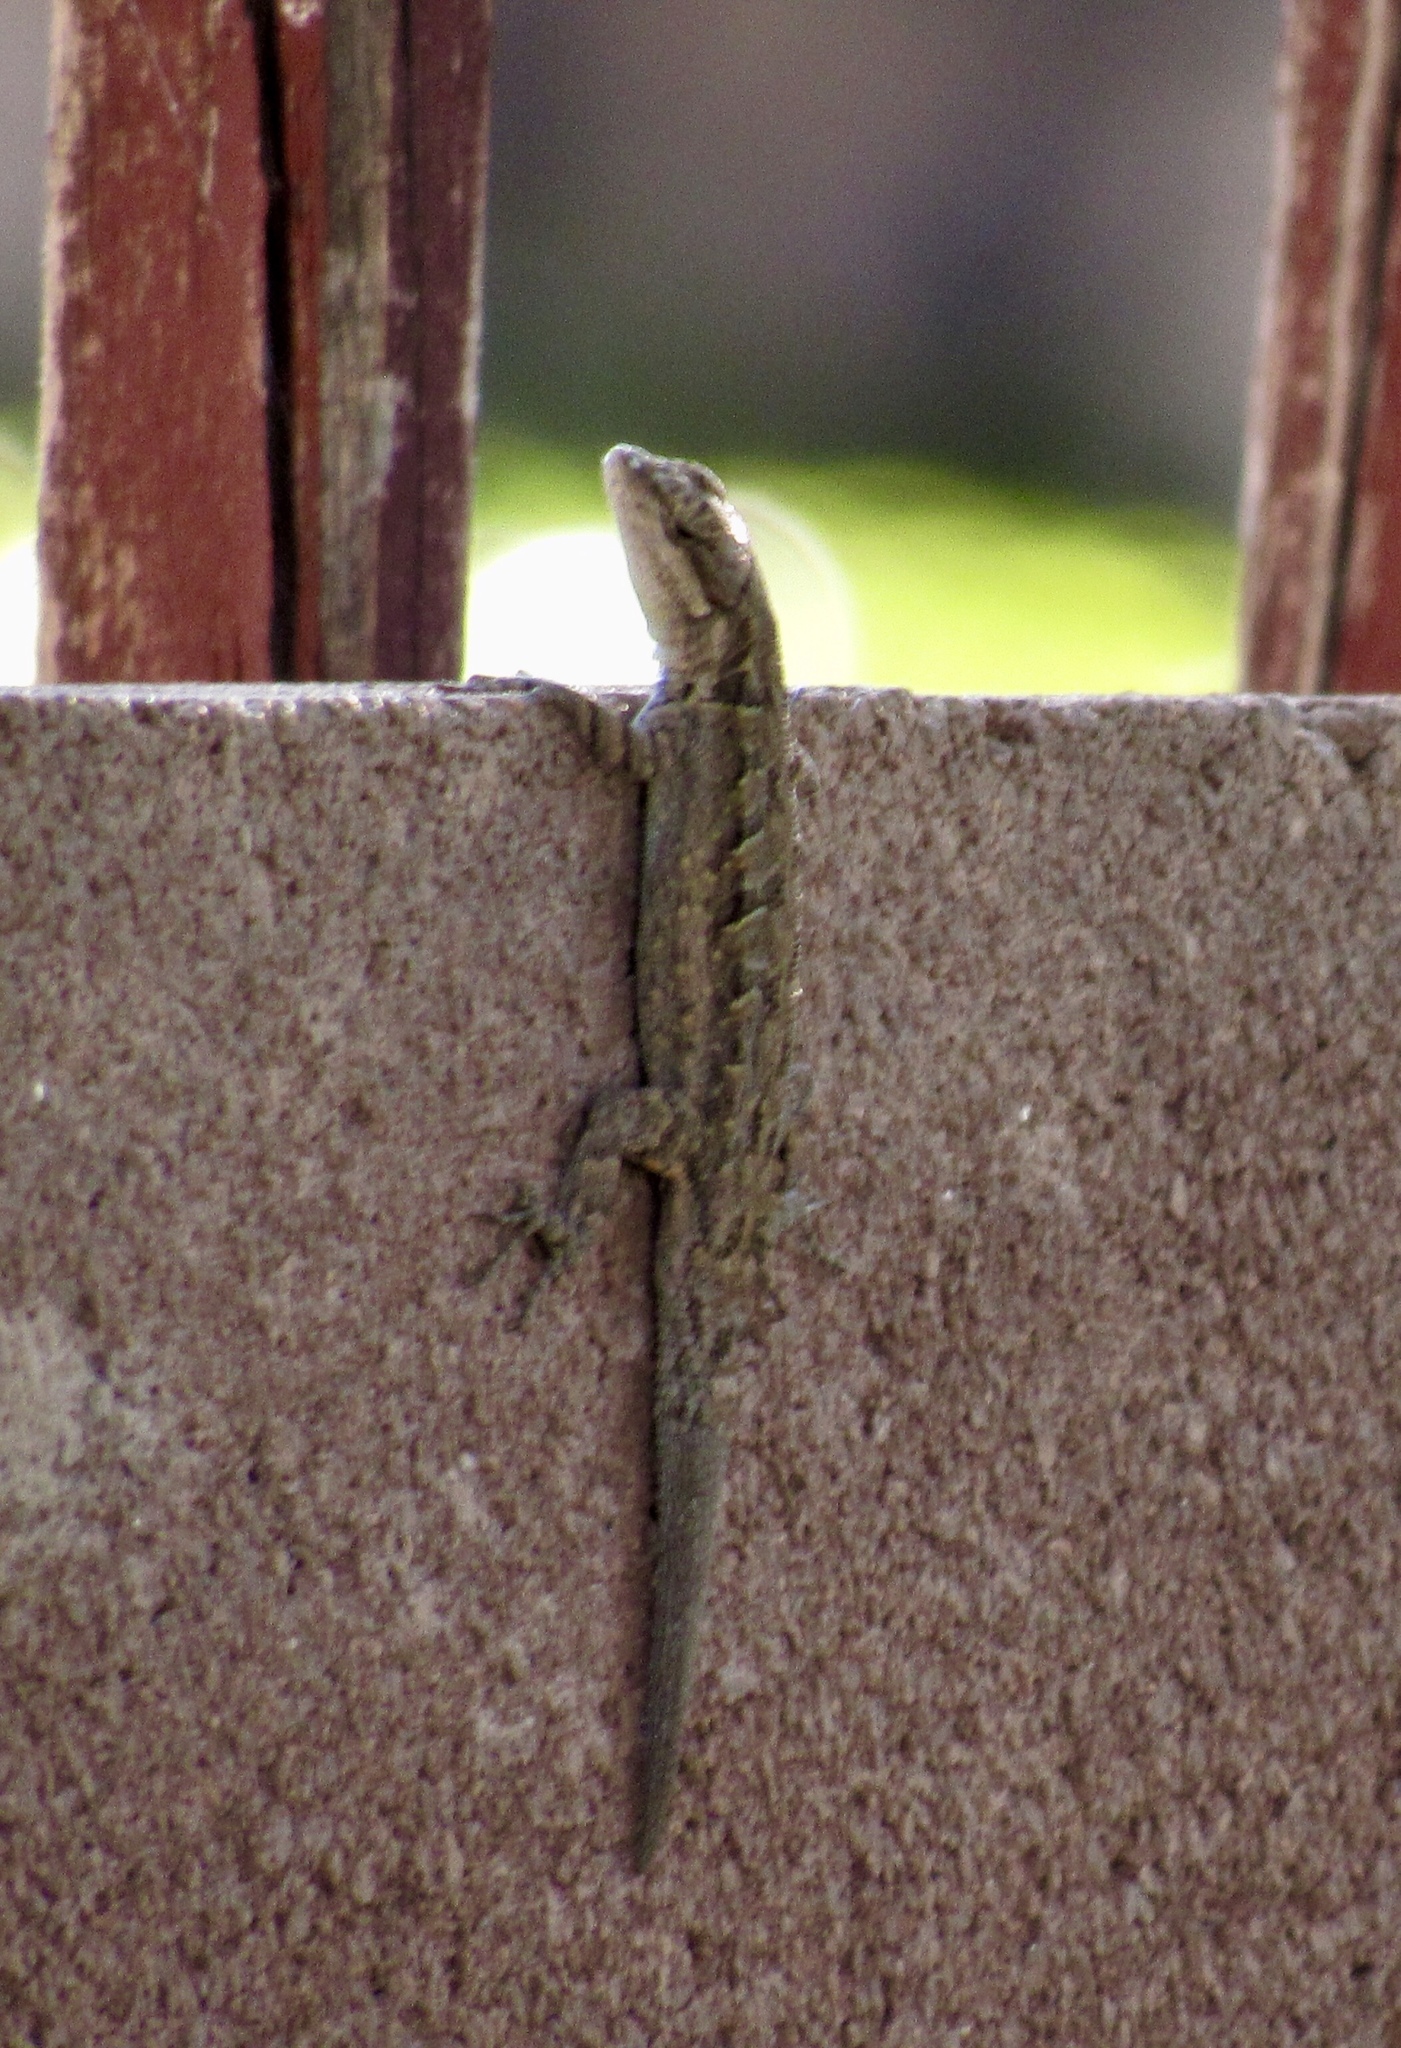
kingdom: Animalia
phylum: Chordata
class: Squamata
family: Phrynosomatidae
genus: Urosaurus
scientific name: Urosaurus ornatus
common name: Ornate tree lizard
